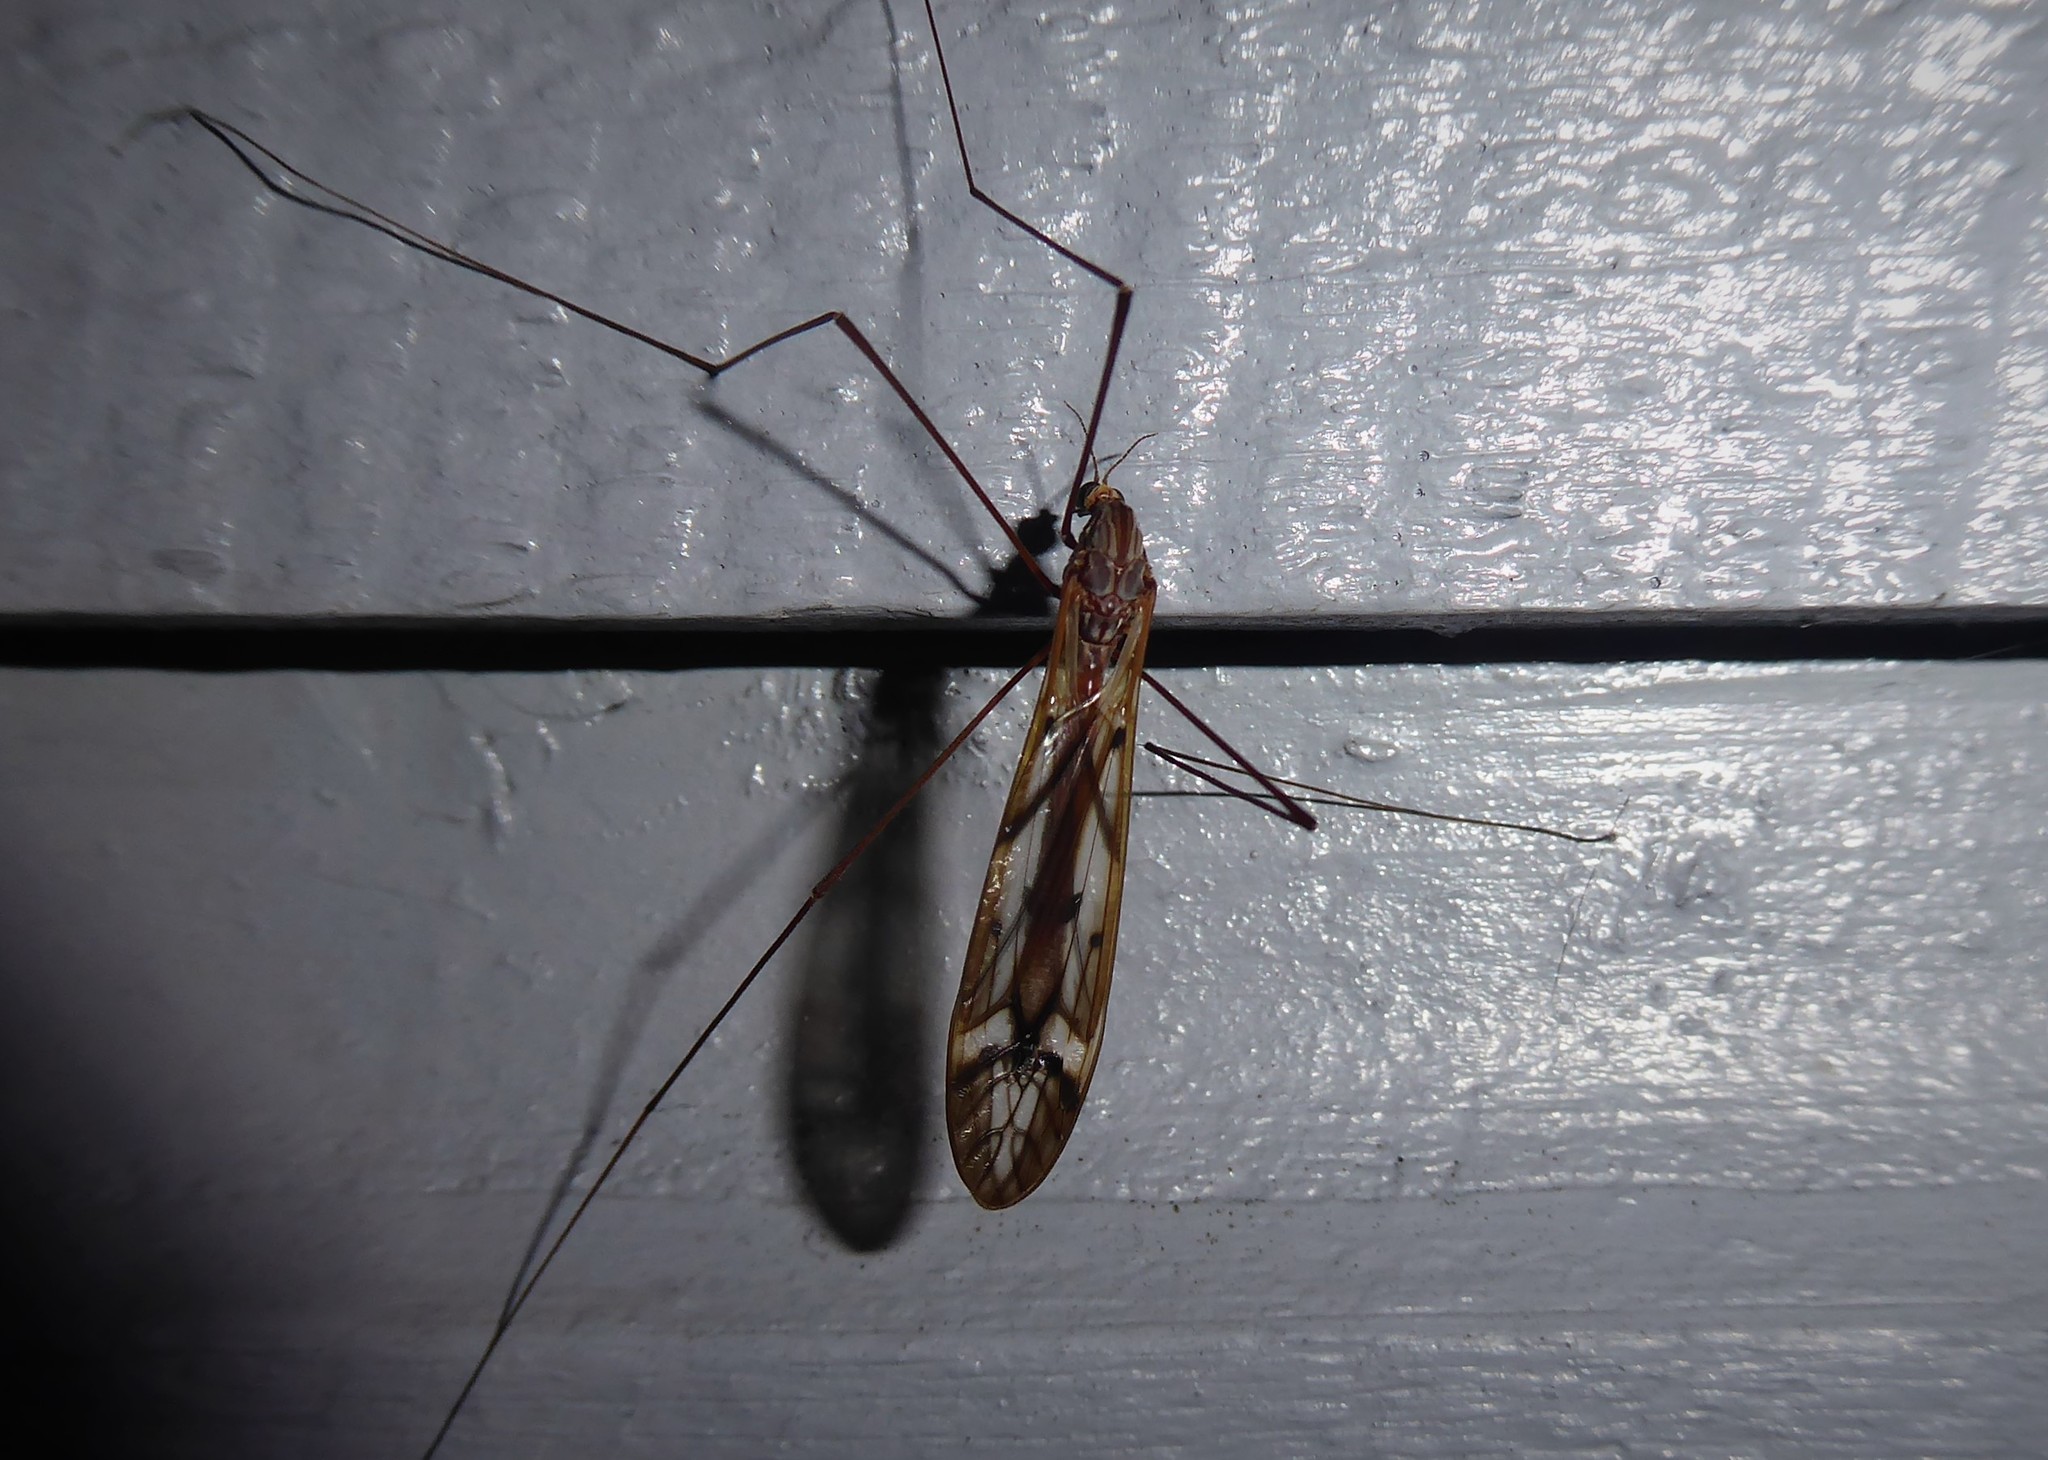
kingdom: Animalia
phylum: Arthropoda
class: Insecta
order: Diptera
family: Tipulidae
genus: Zelandotipula
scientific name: Zelandotipula novarae
